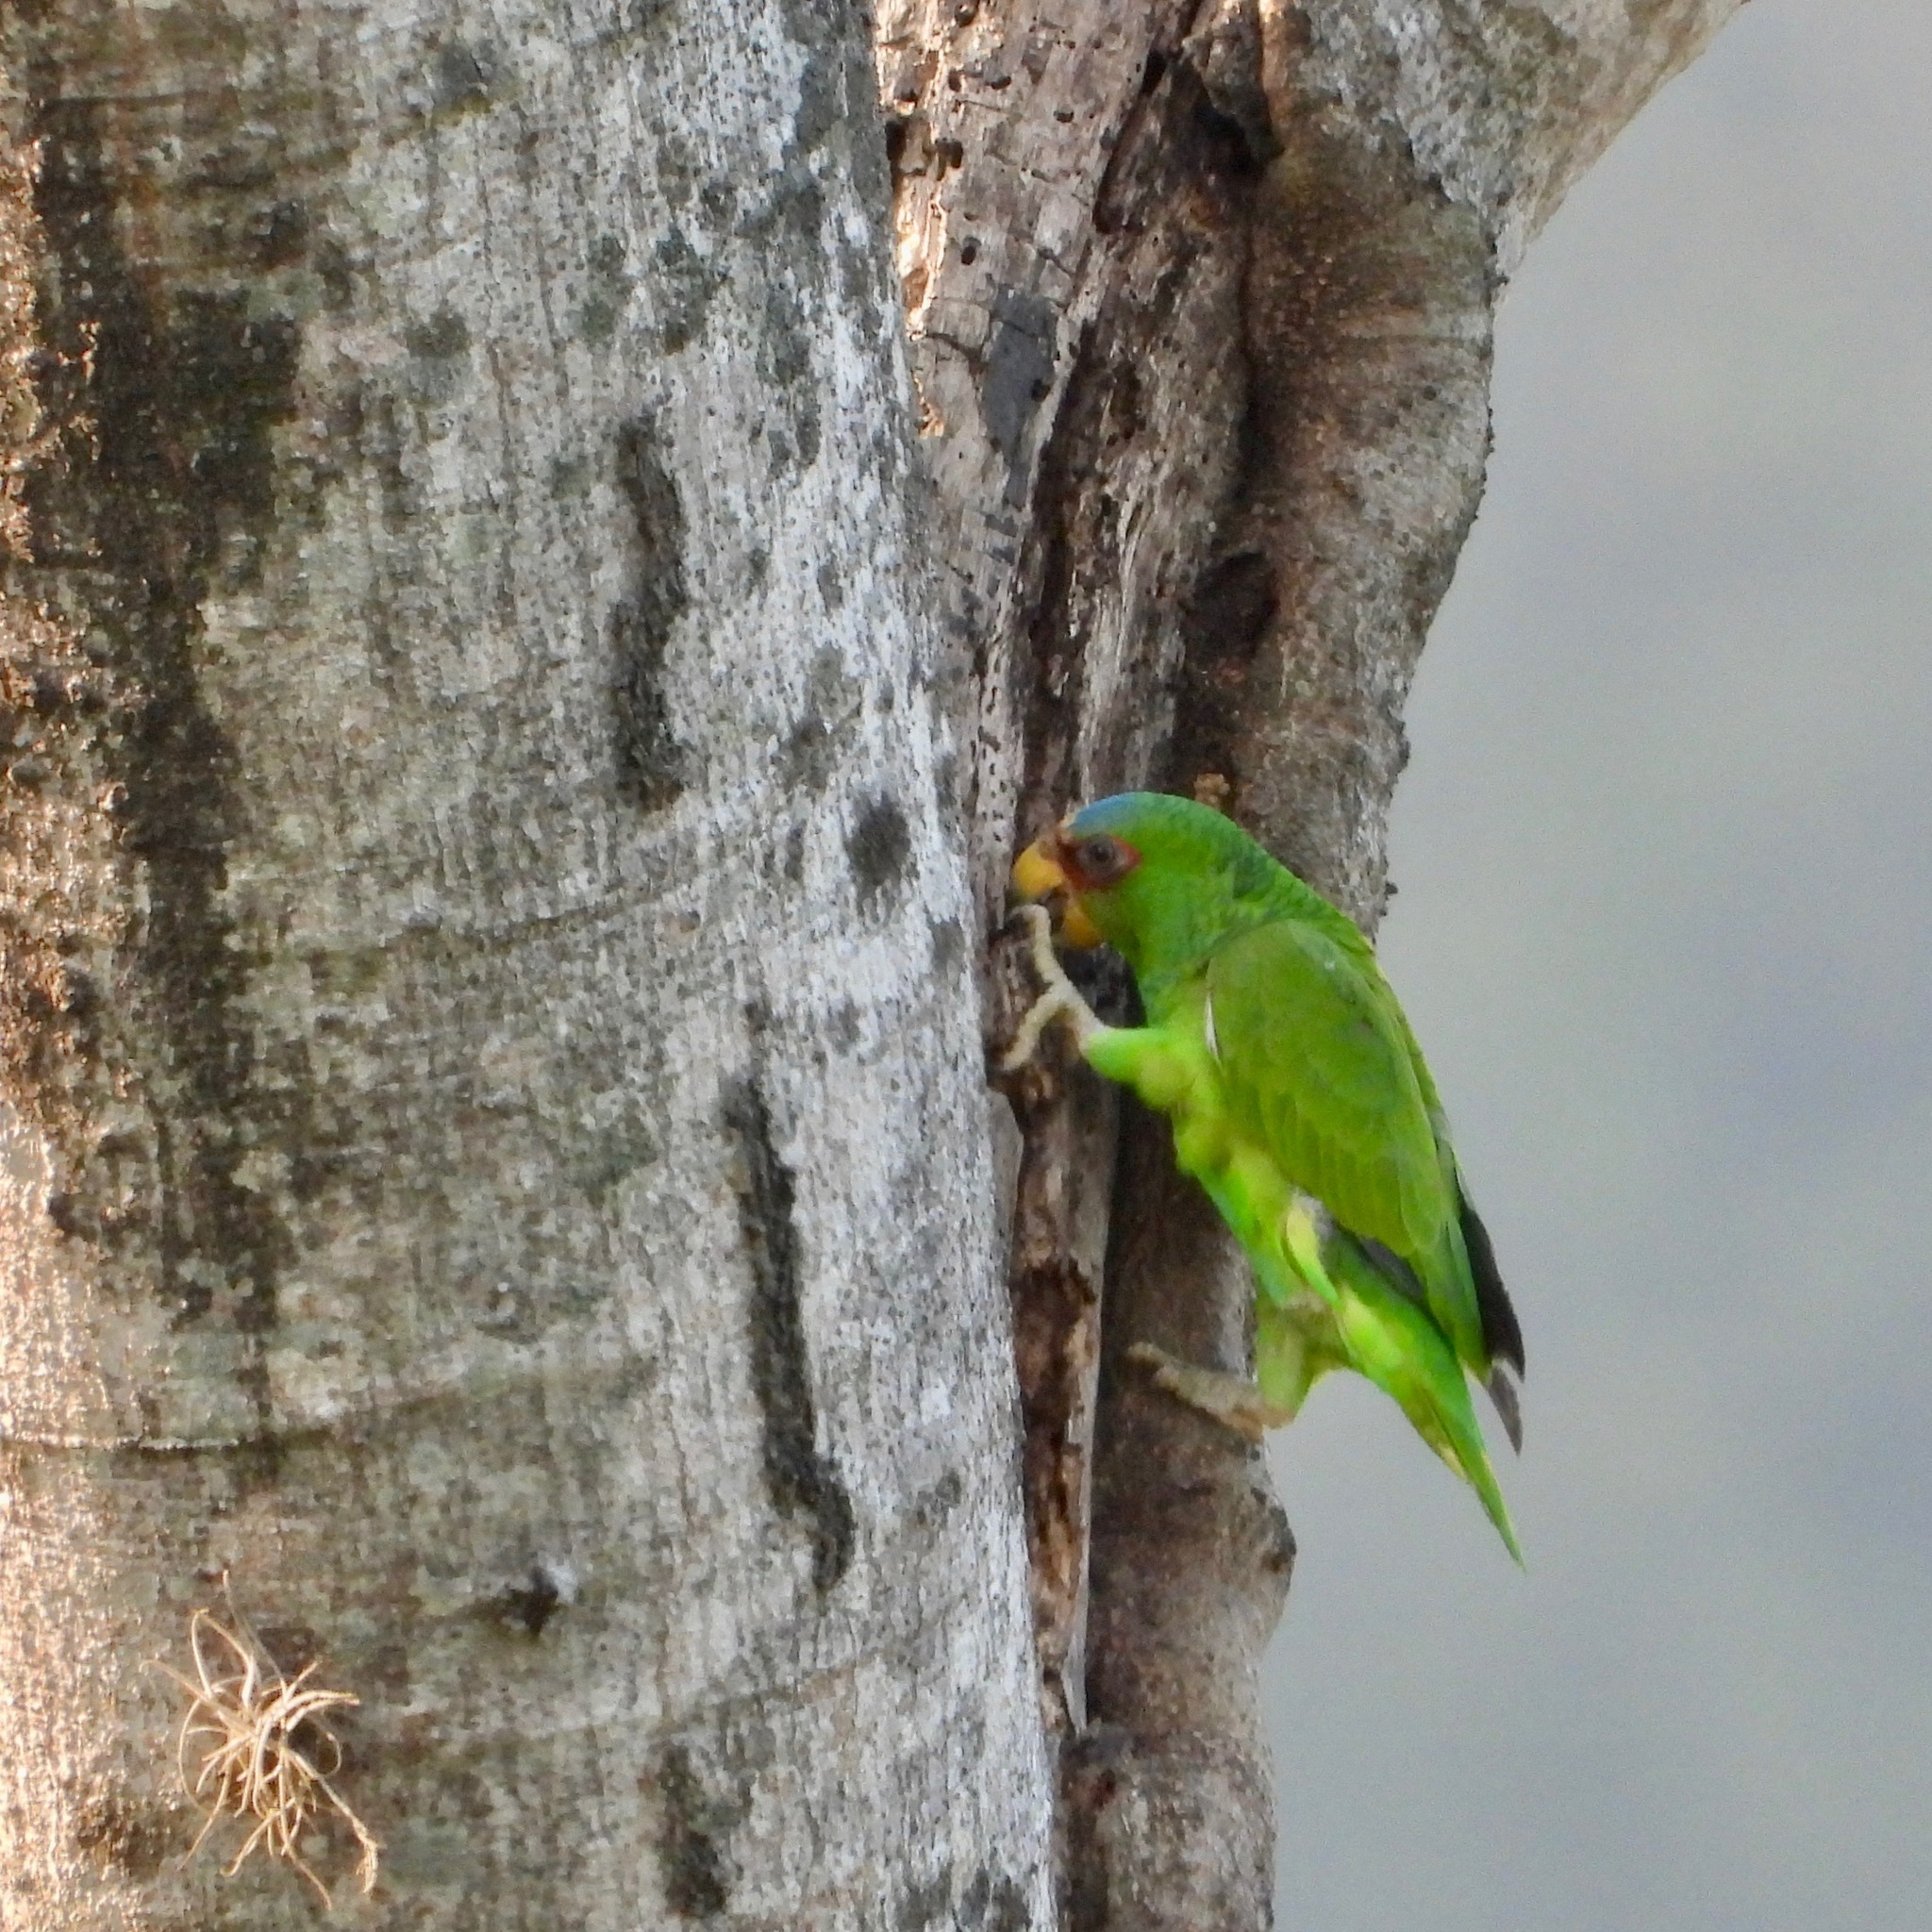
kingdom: Animalia
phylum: Chordata
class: Aves
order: Psittaciformes
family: Psittacidae
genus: Amazona
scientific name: Amazona albifrons
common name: White-fronted amazon
